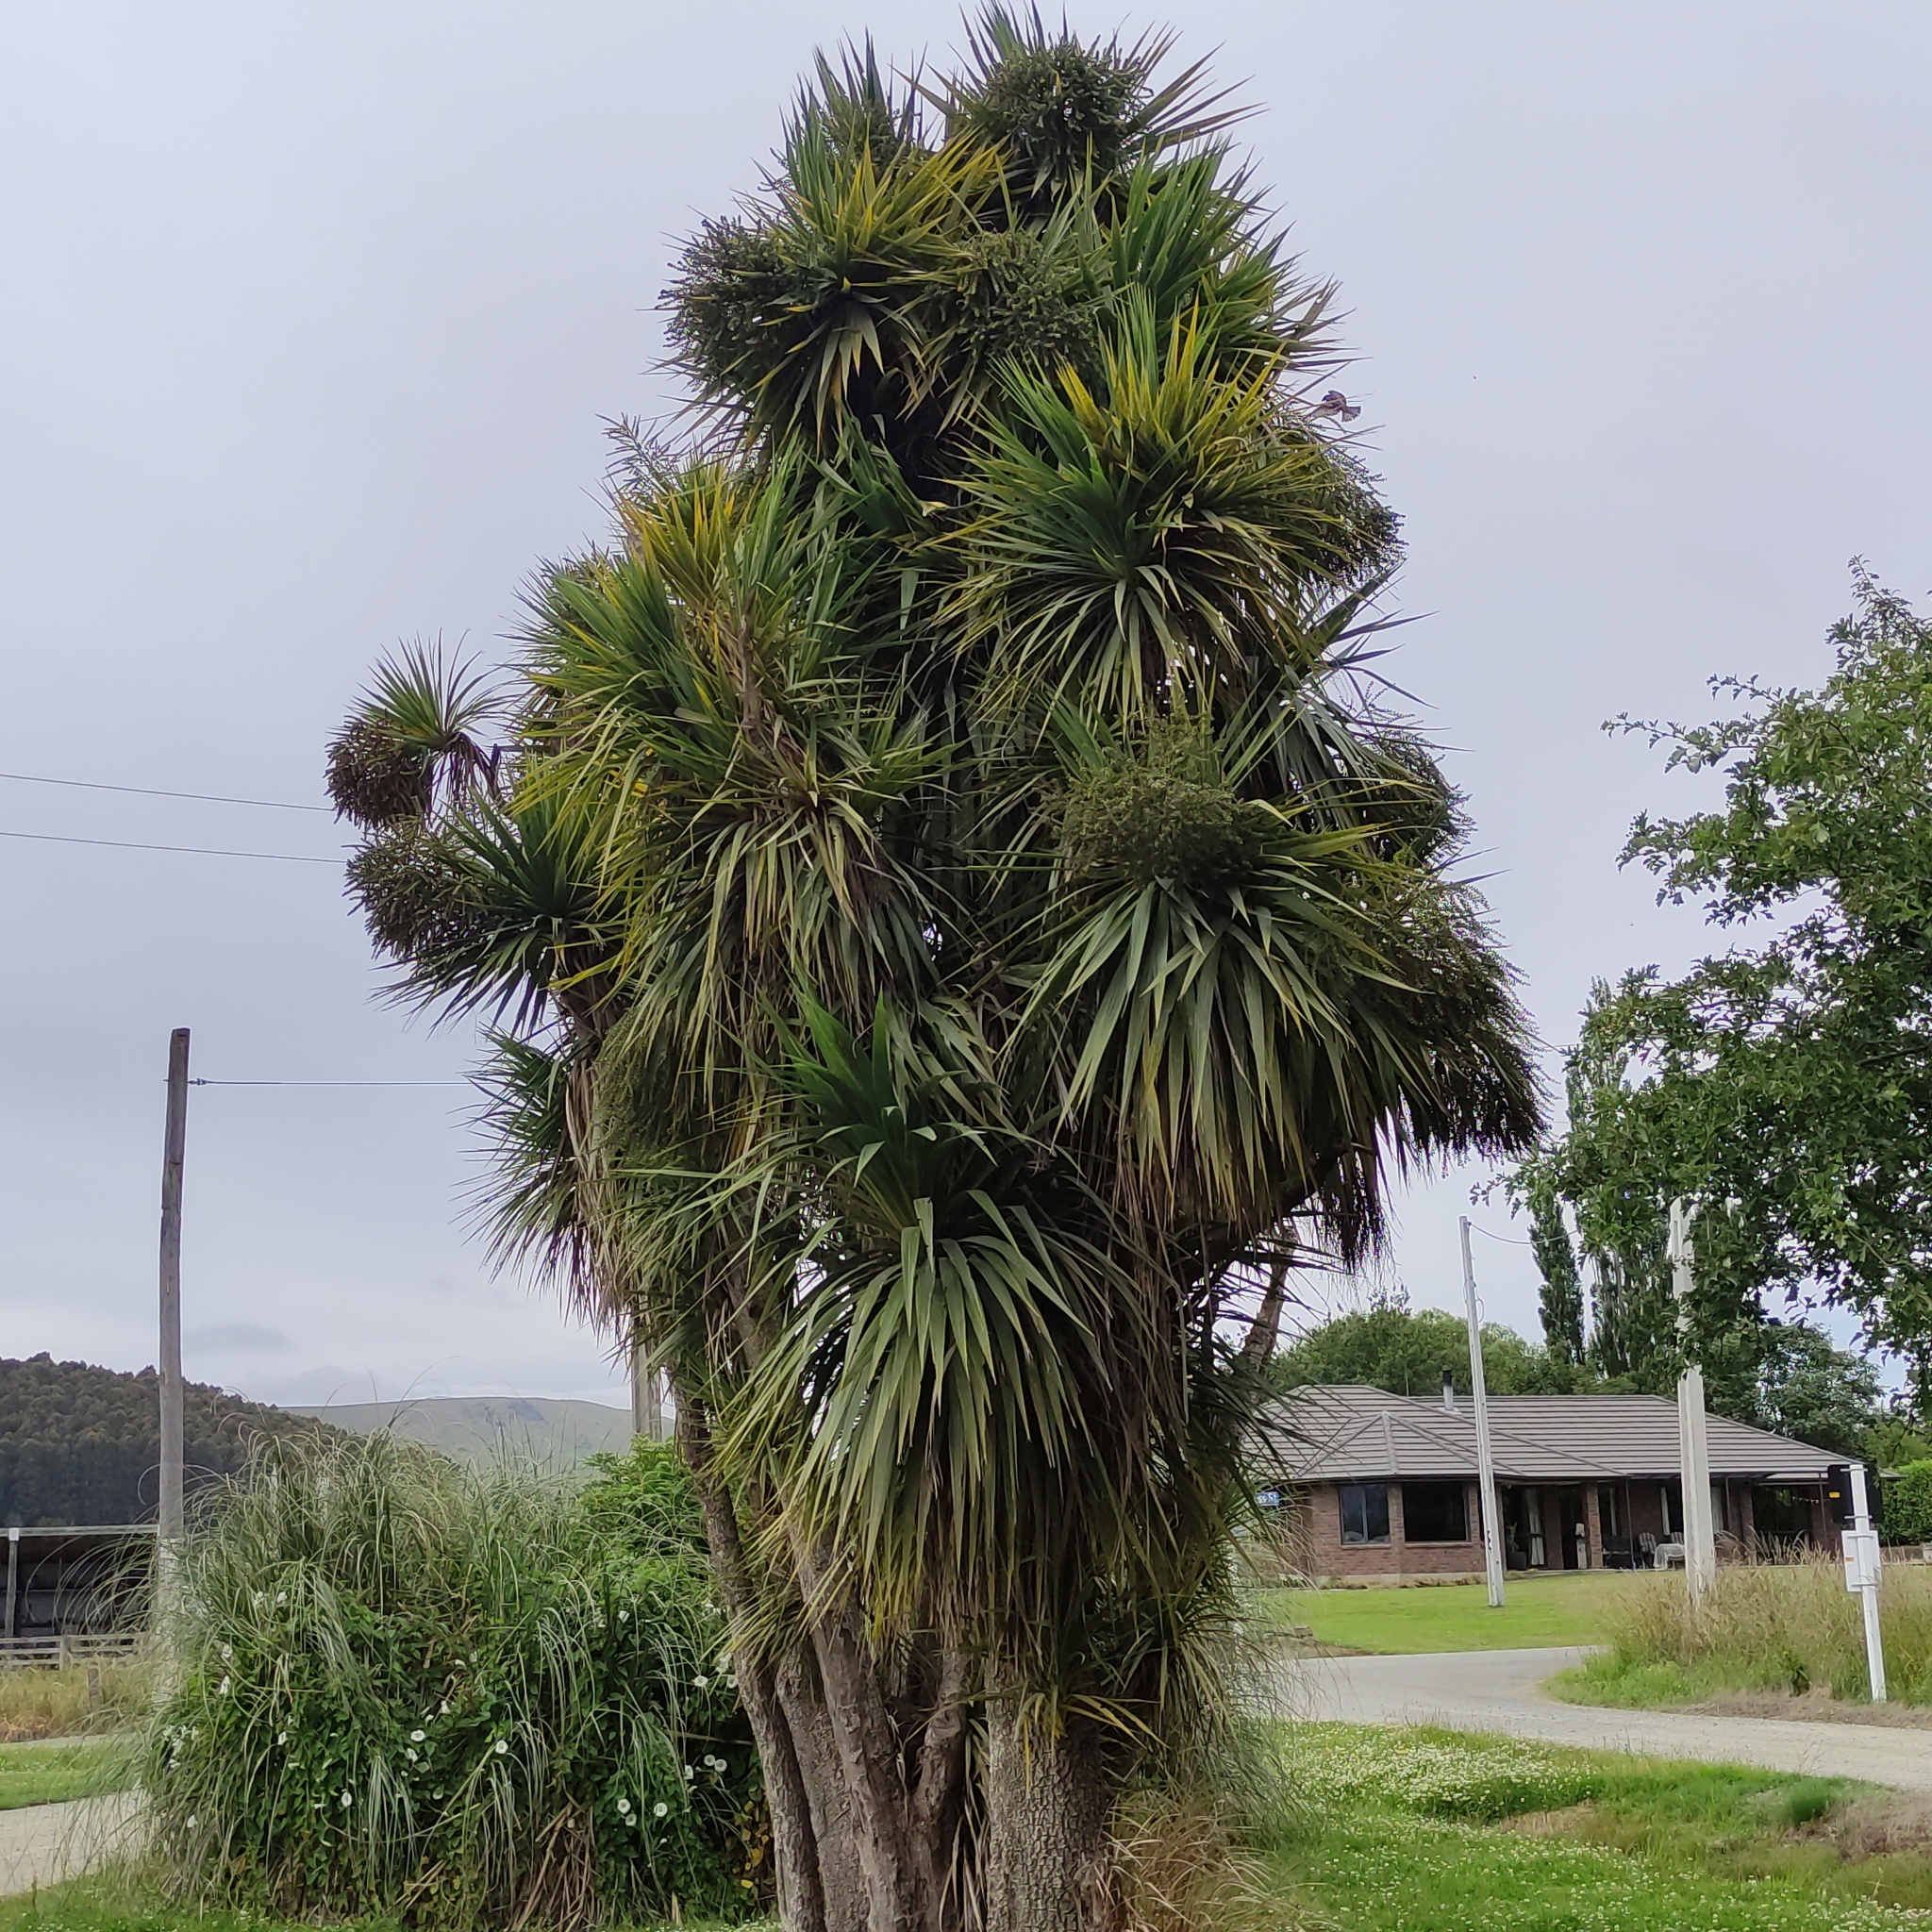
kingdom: Plantae
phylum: Tracheophyta
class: Liliopsida
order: Asparagales
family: Asparagaceae
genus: Cordyline
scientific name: Cordyline australis
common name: Cabbage-palm
